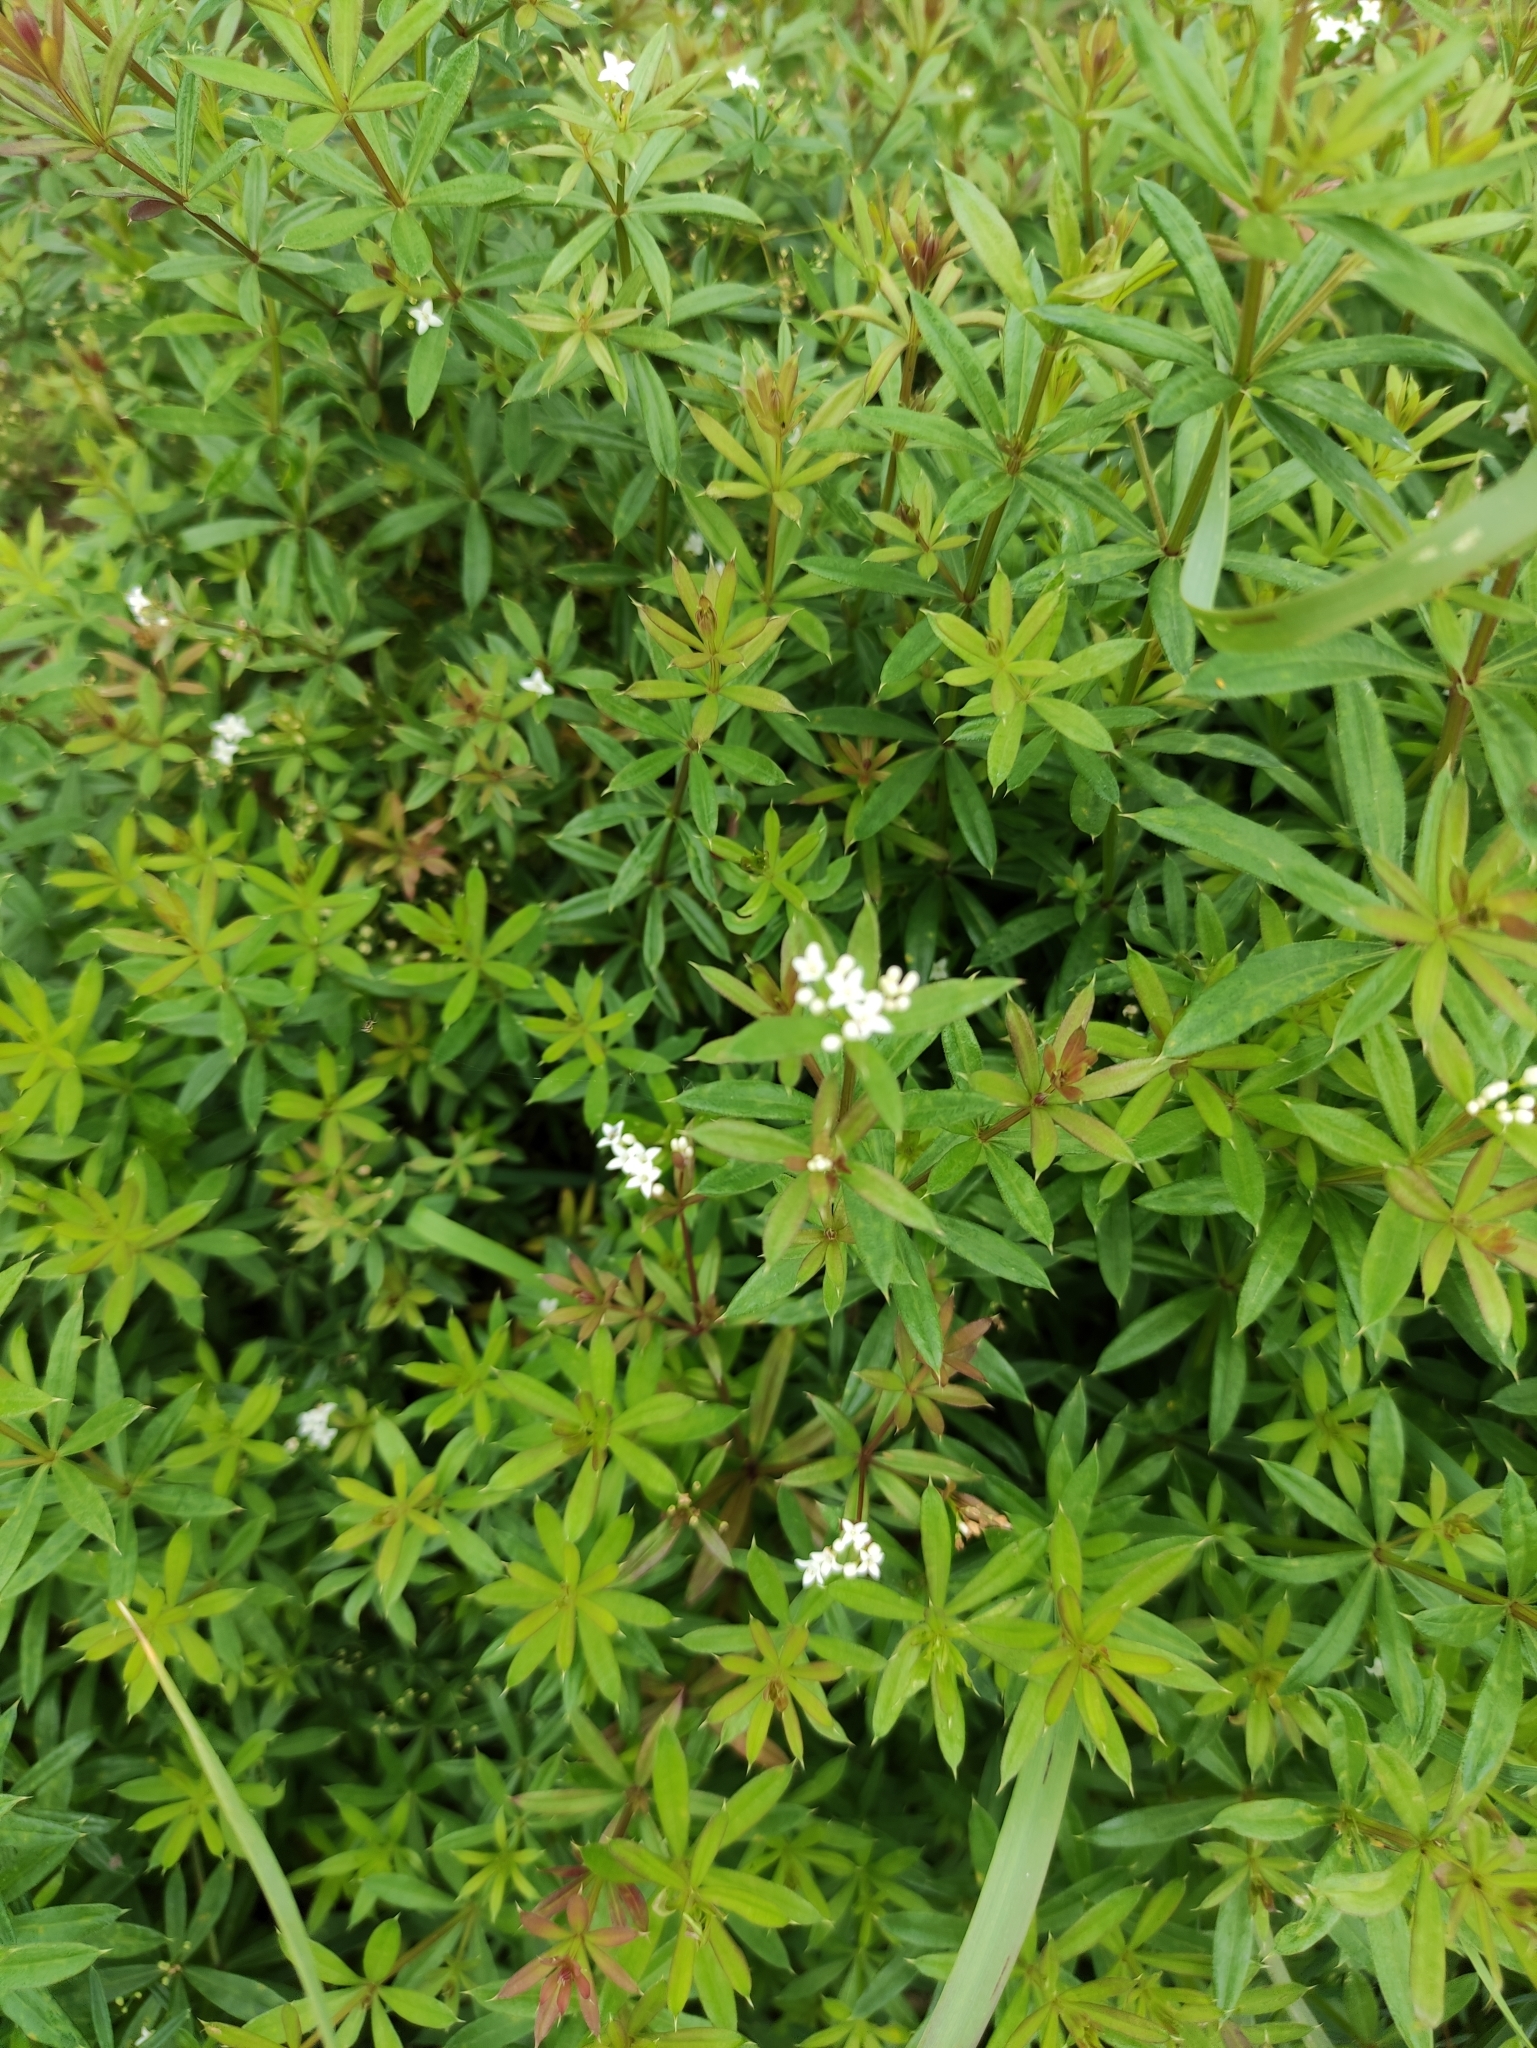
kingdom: Plantae
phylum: Tracheophyta
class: Magnoliopsida
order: Gentianales
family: Rubiaceae
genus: Galium
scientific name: Galium rivale
